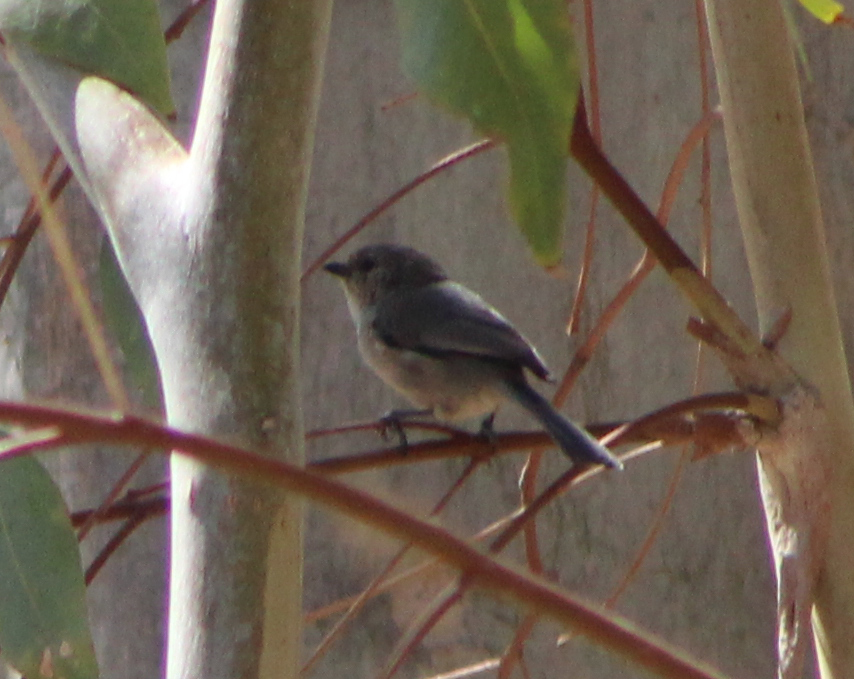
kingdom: Animalia
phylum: Chordata
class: Aves
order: Passeriformes
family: Aegithalidae
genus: Psaltriparus
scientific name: Psaltriparus minimus
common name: American bushtit
